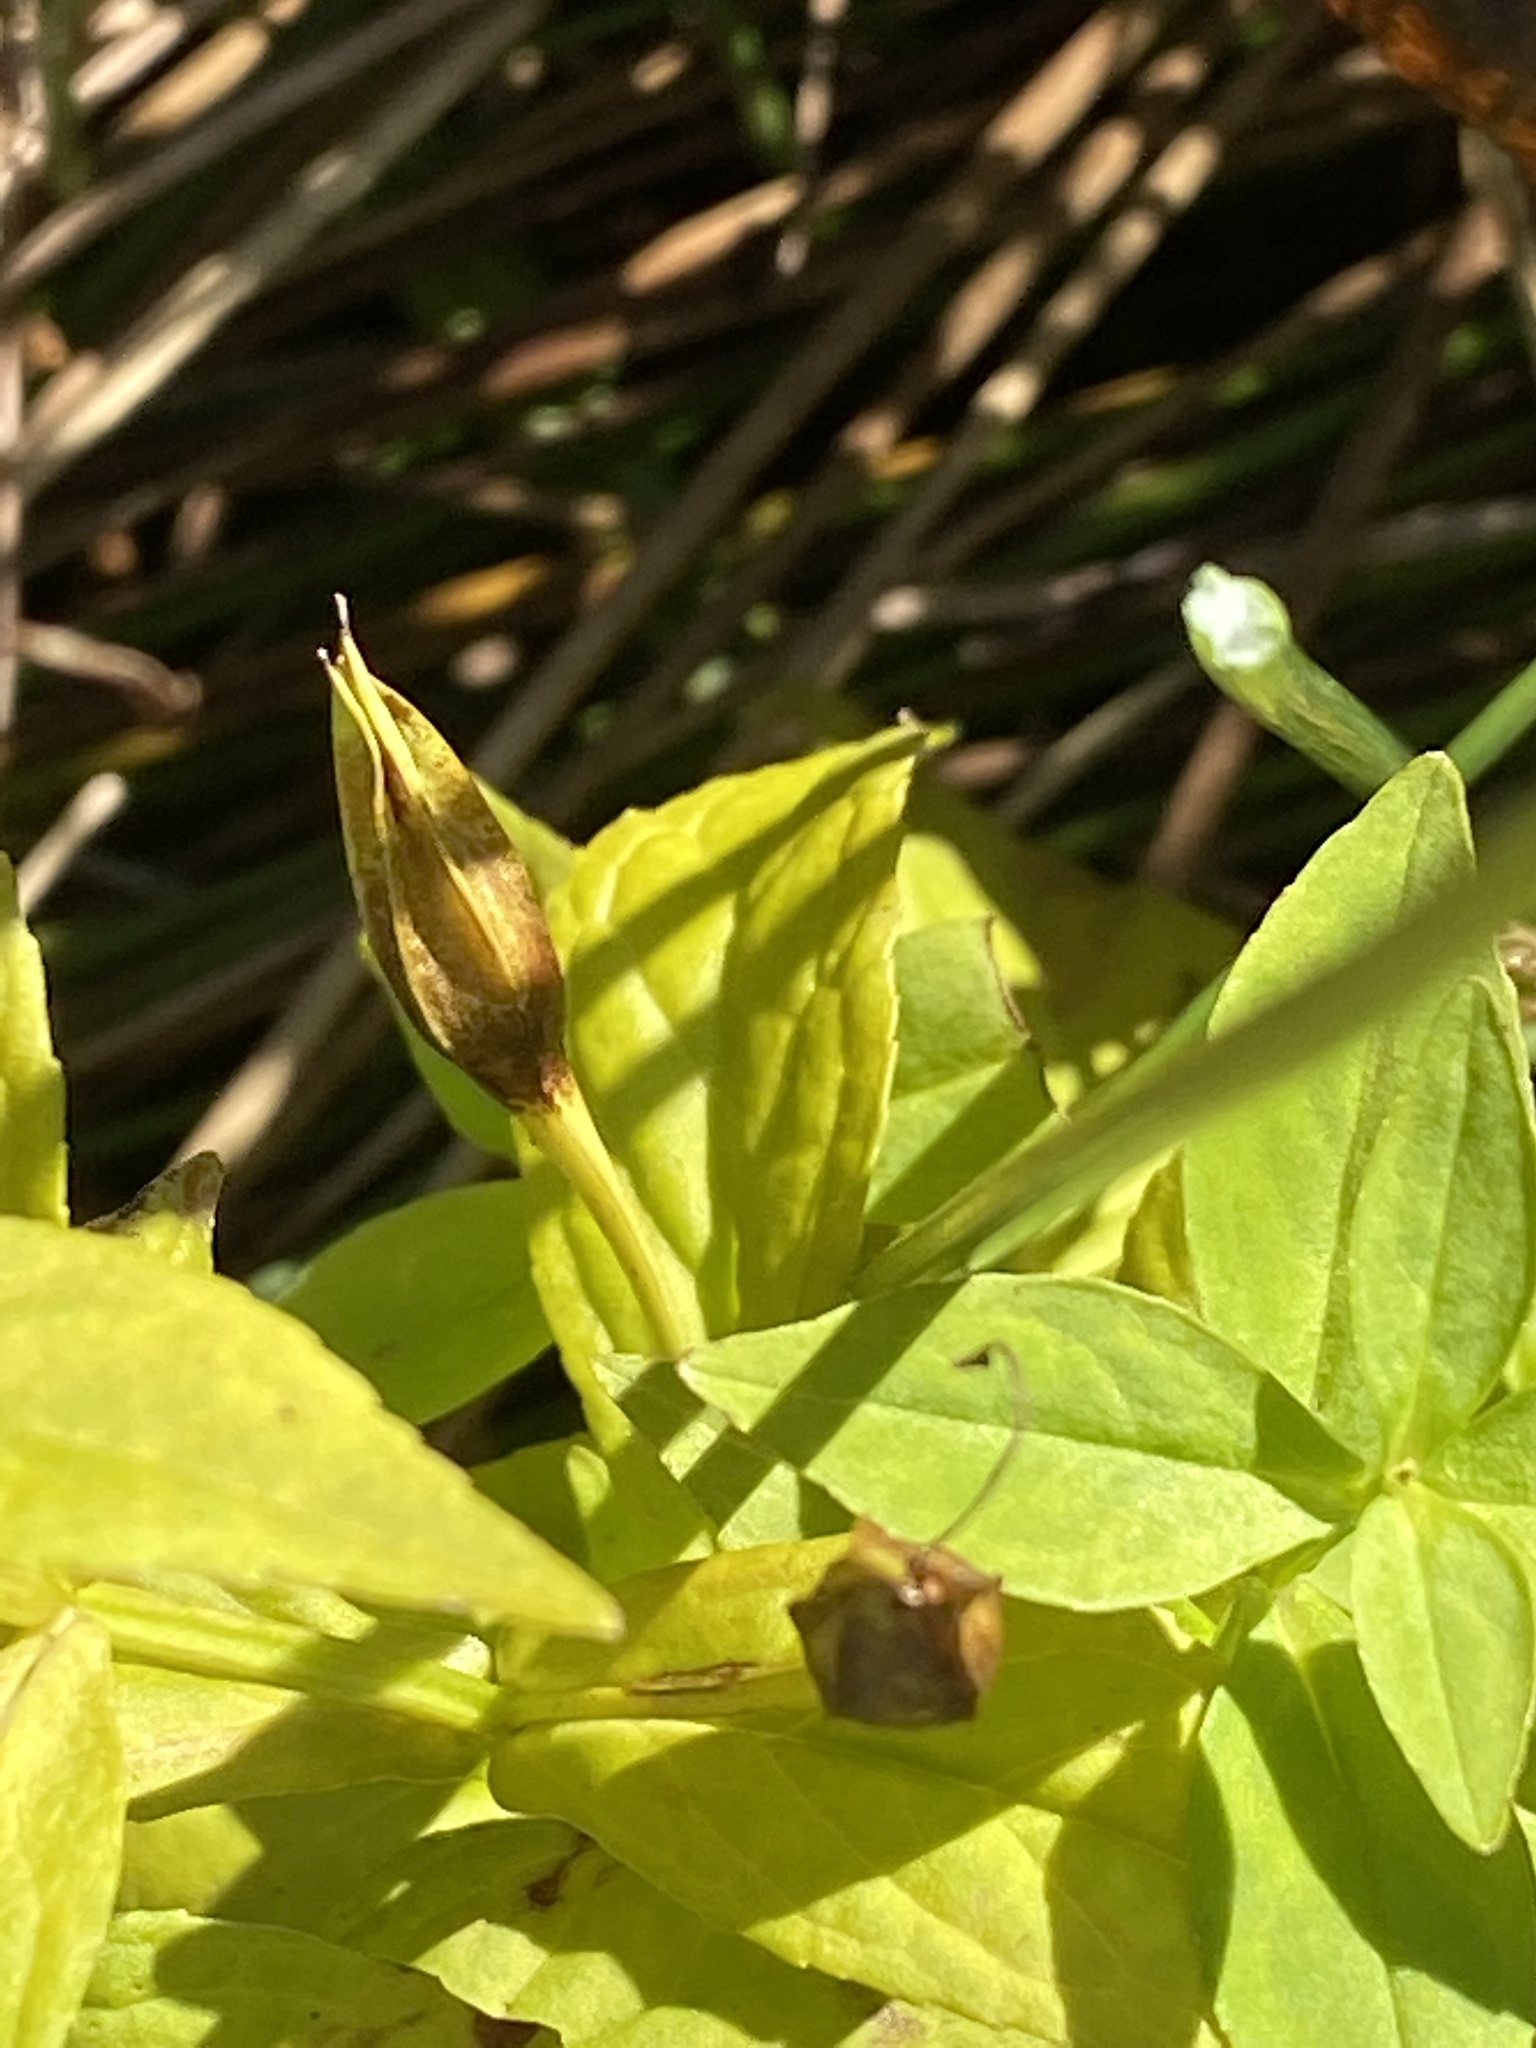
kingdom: Plantae
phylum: Tracheophyta
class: Magnoliopsida
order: Lamiales
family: Phrymaceae
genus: Mimulus
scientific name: Mimulus ringens
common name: Allegheny monkeyflower
